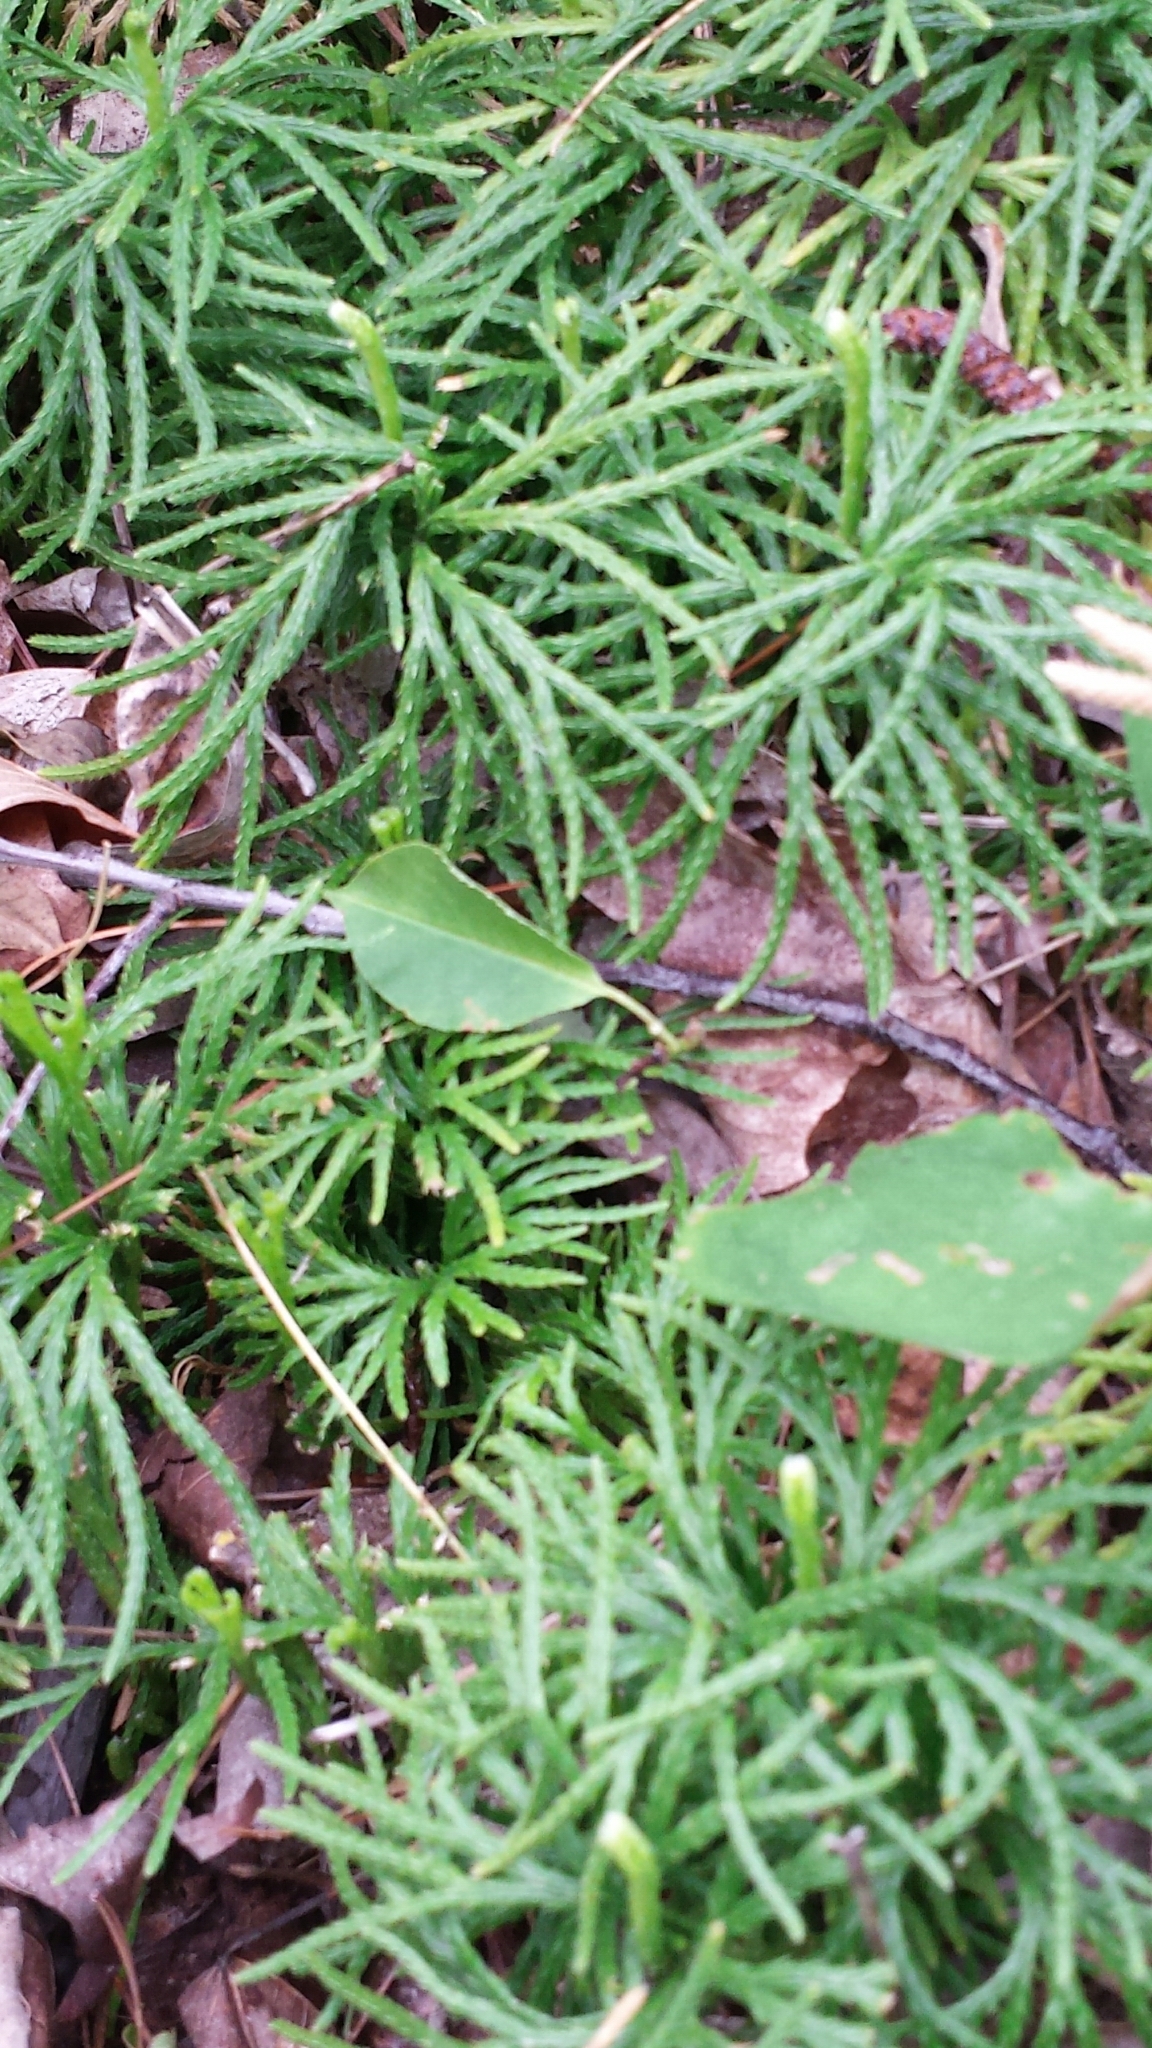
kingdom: Plantae
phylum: Tracheophyta
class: Lycopodiopsida
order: Lycopodiales
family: Lycopodiaceae
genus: Diphasiastrum
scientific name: Diphasiastrum digitatum
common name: Southern running-pine
